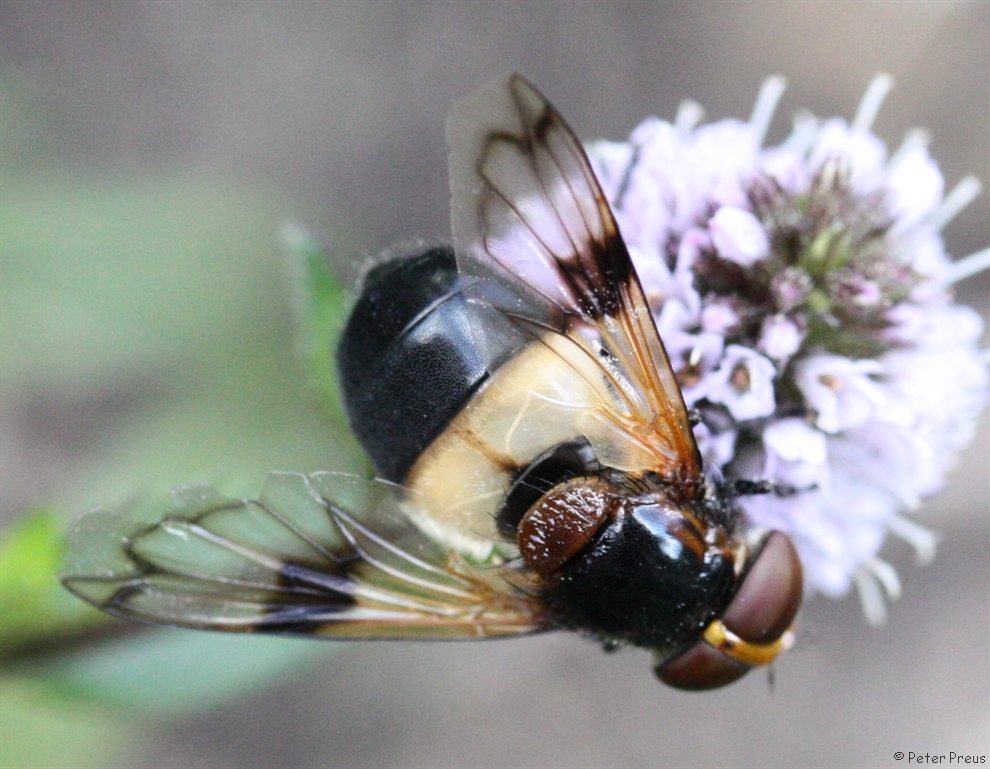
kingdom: Animalia
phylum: Arthropoda
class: Insecta
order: Diptera
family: Syrphidae
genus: Volucella
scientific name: Volucella pellucens
